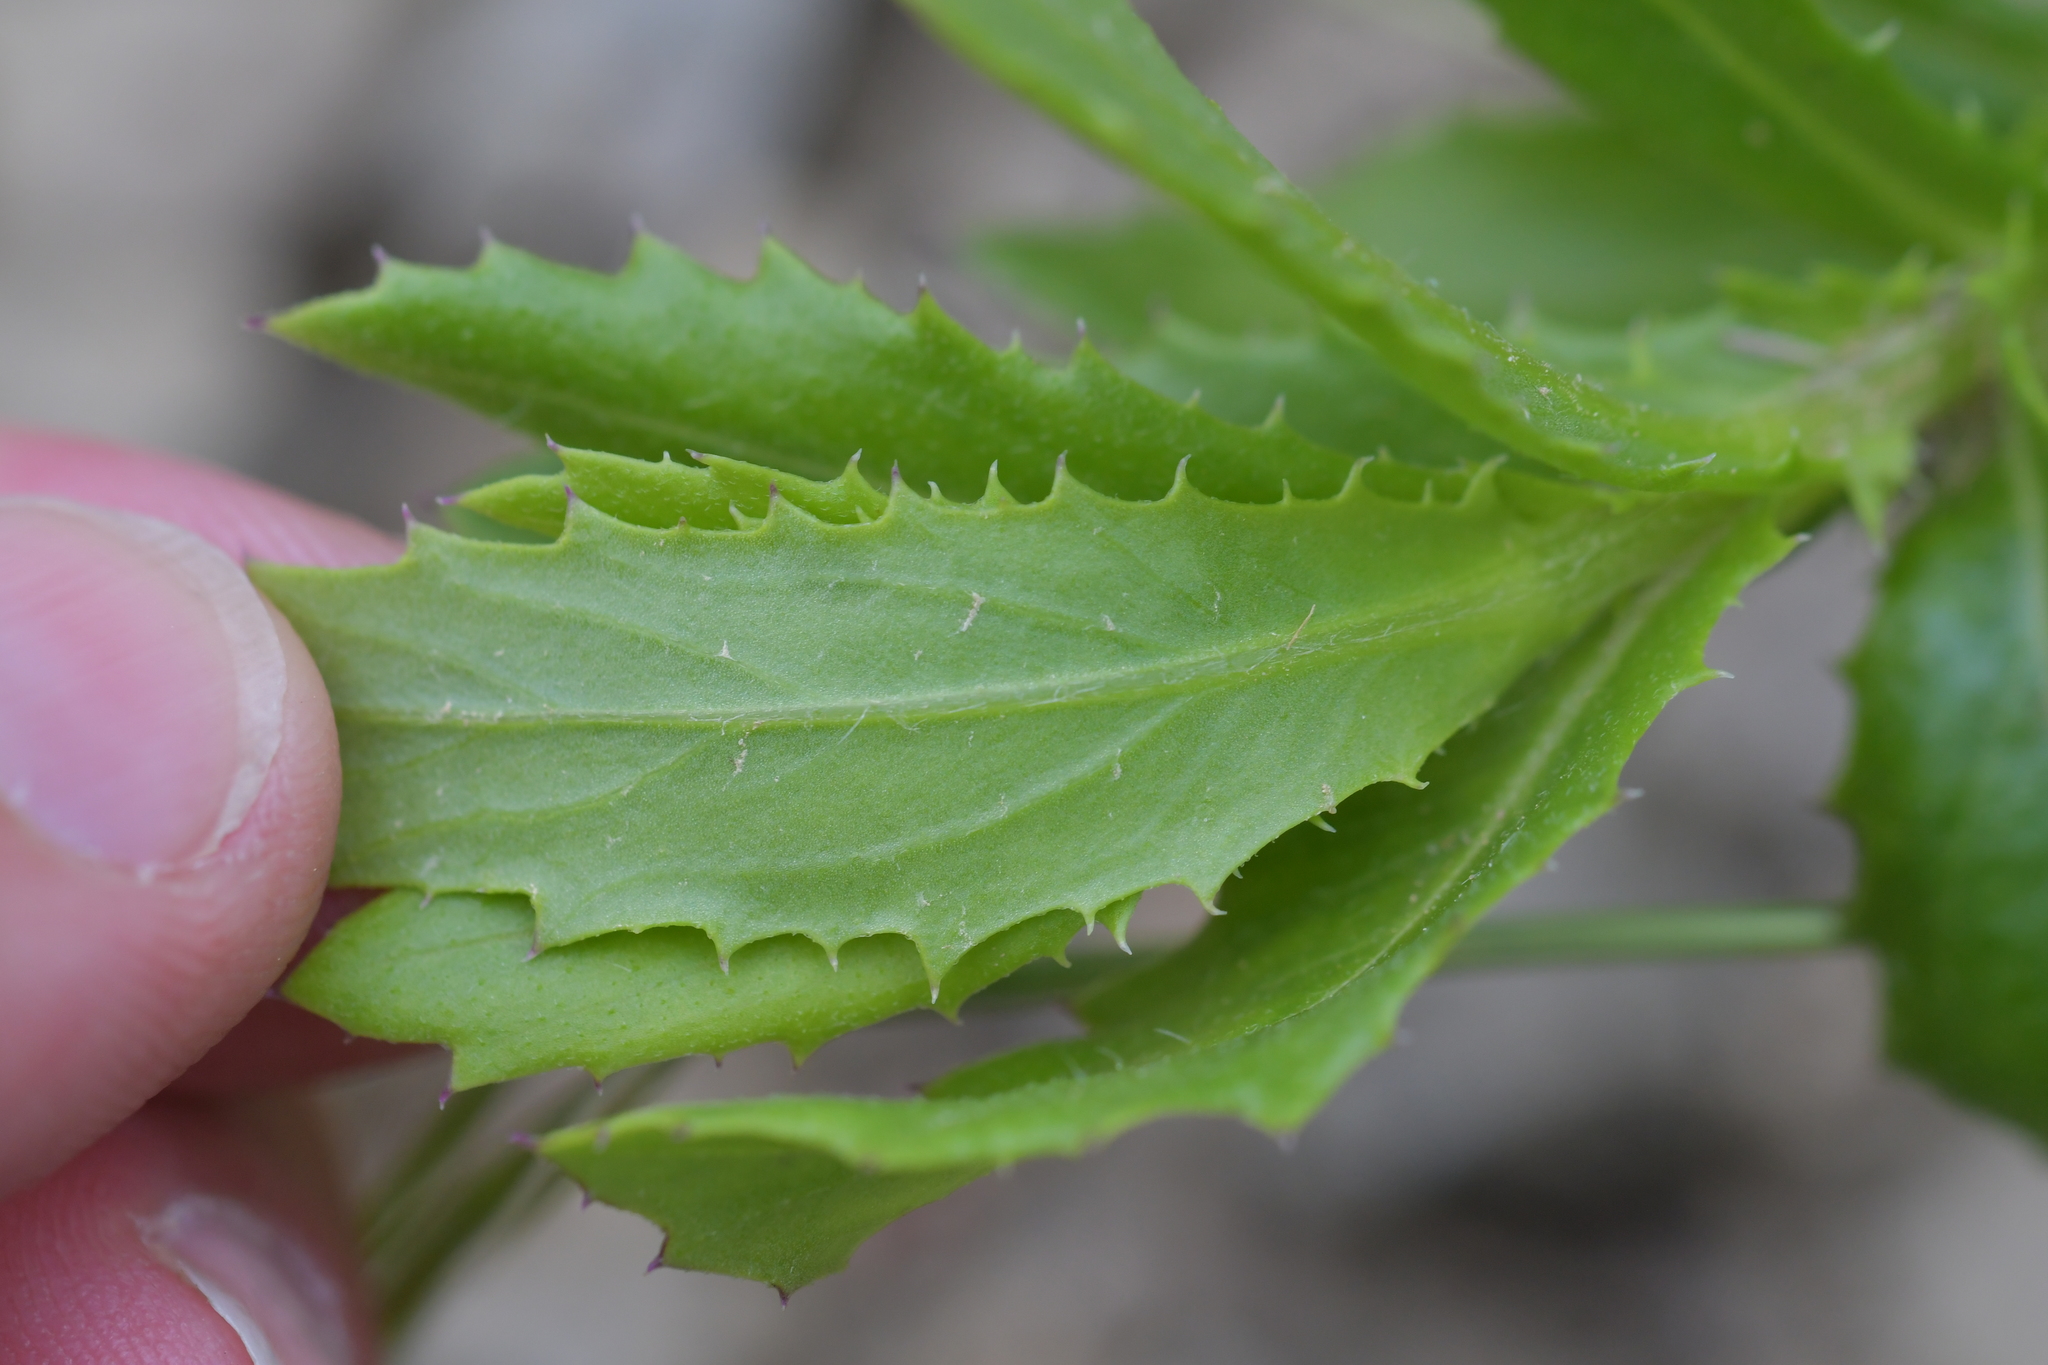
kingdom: Plantae
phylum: Tracheophyta
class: Magnoliopsida
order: Asterales
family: Asteraceae
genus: Senecio
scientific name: Senecio glastifolius
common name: Woad-leaved ragwort
